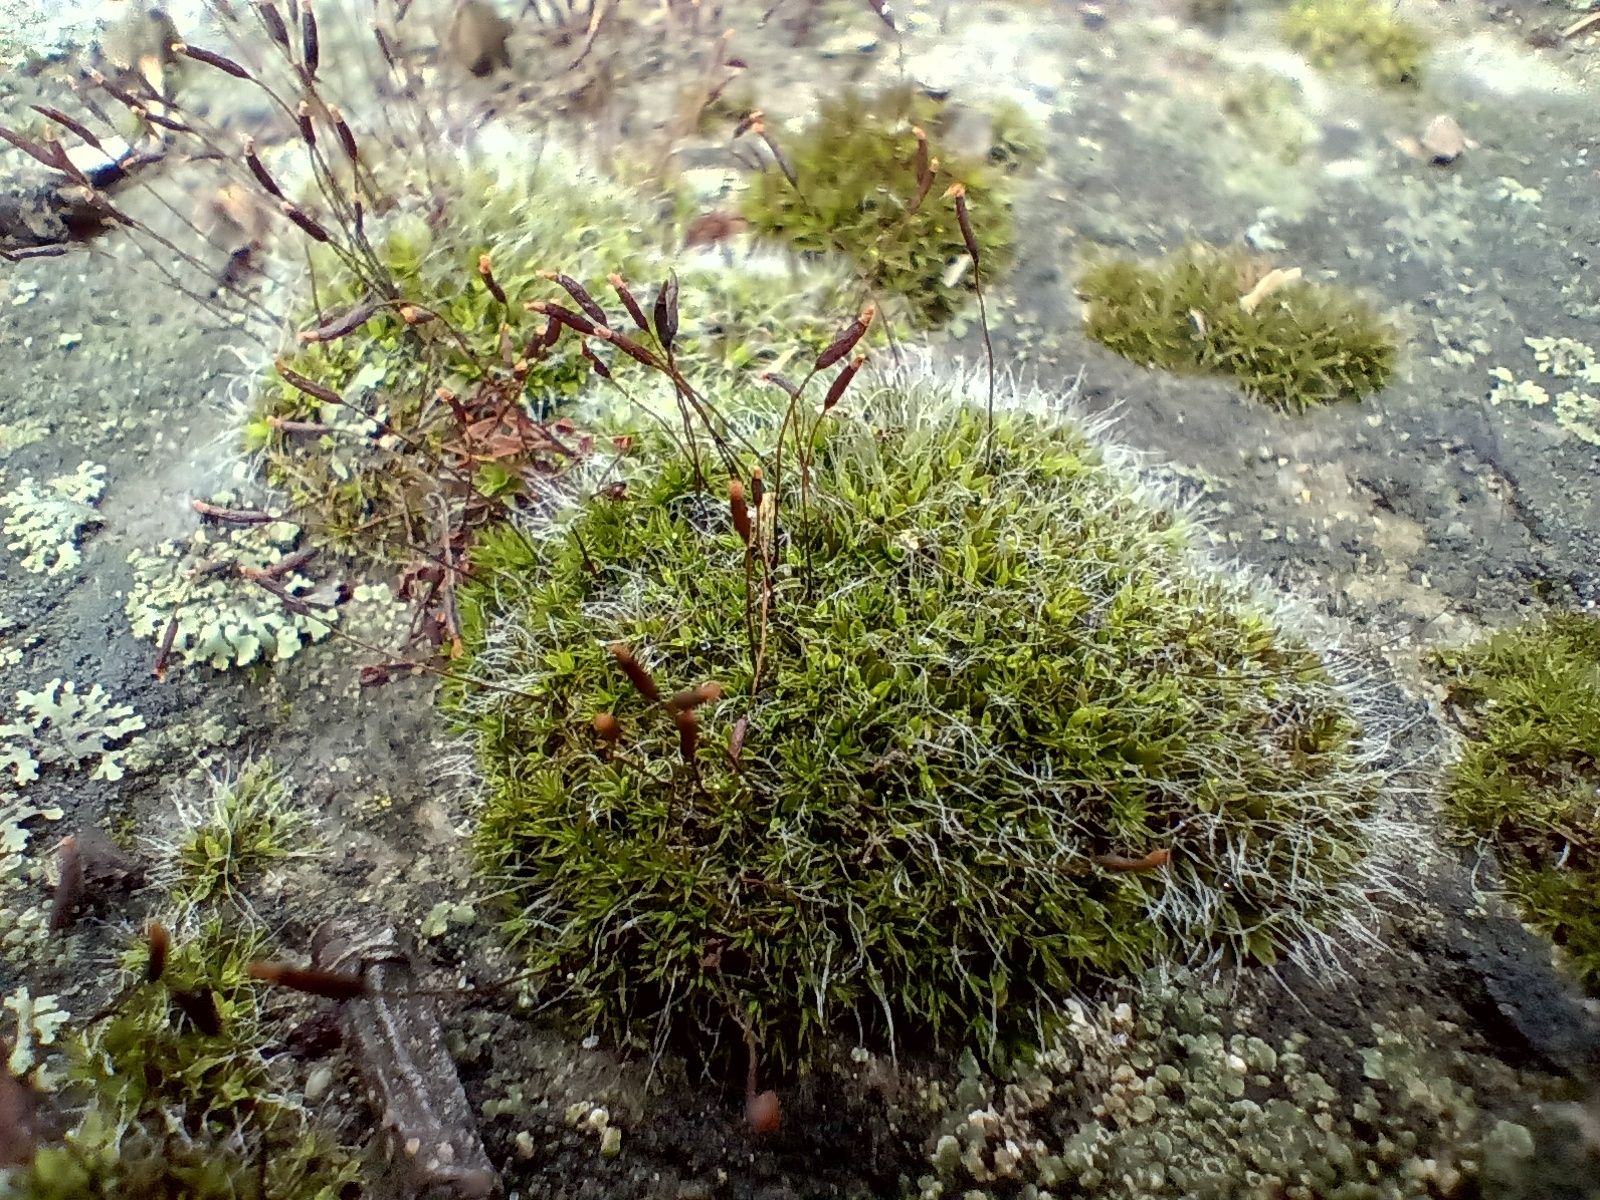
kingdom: Plantae
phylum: Bryophyta
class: Bryopsida
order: Pottiales
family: Pottiaceae
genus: Tortula
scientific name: Tortula muralis
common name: Wall screw-moss
